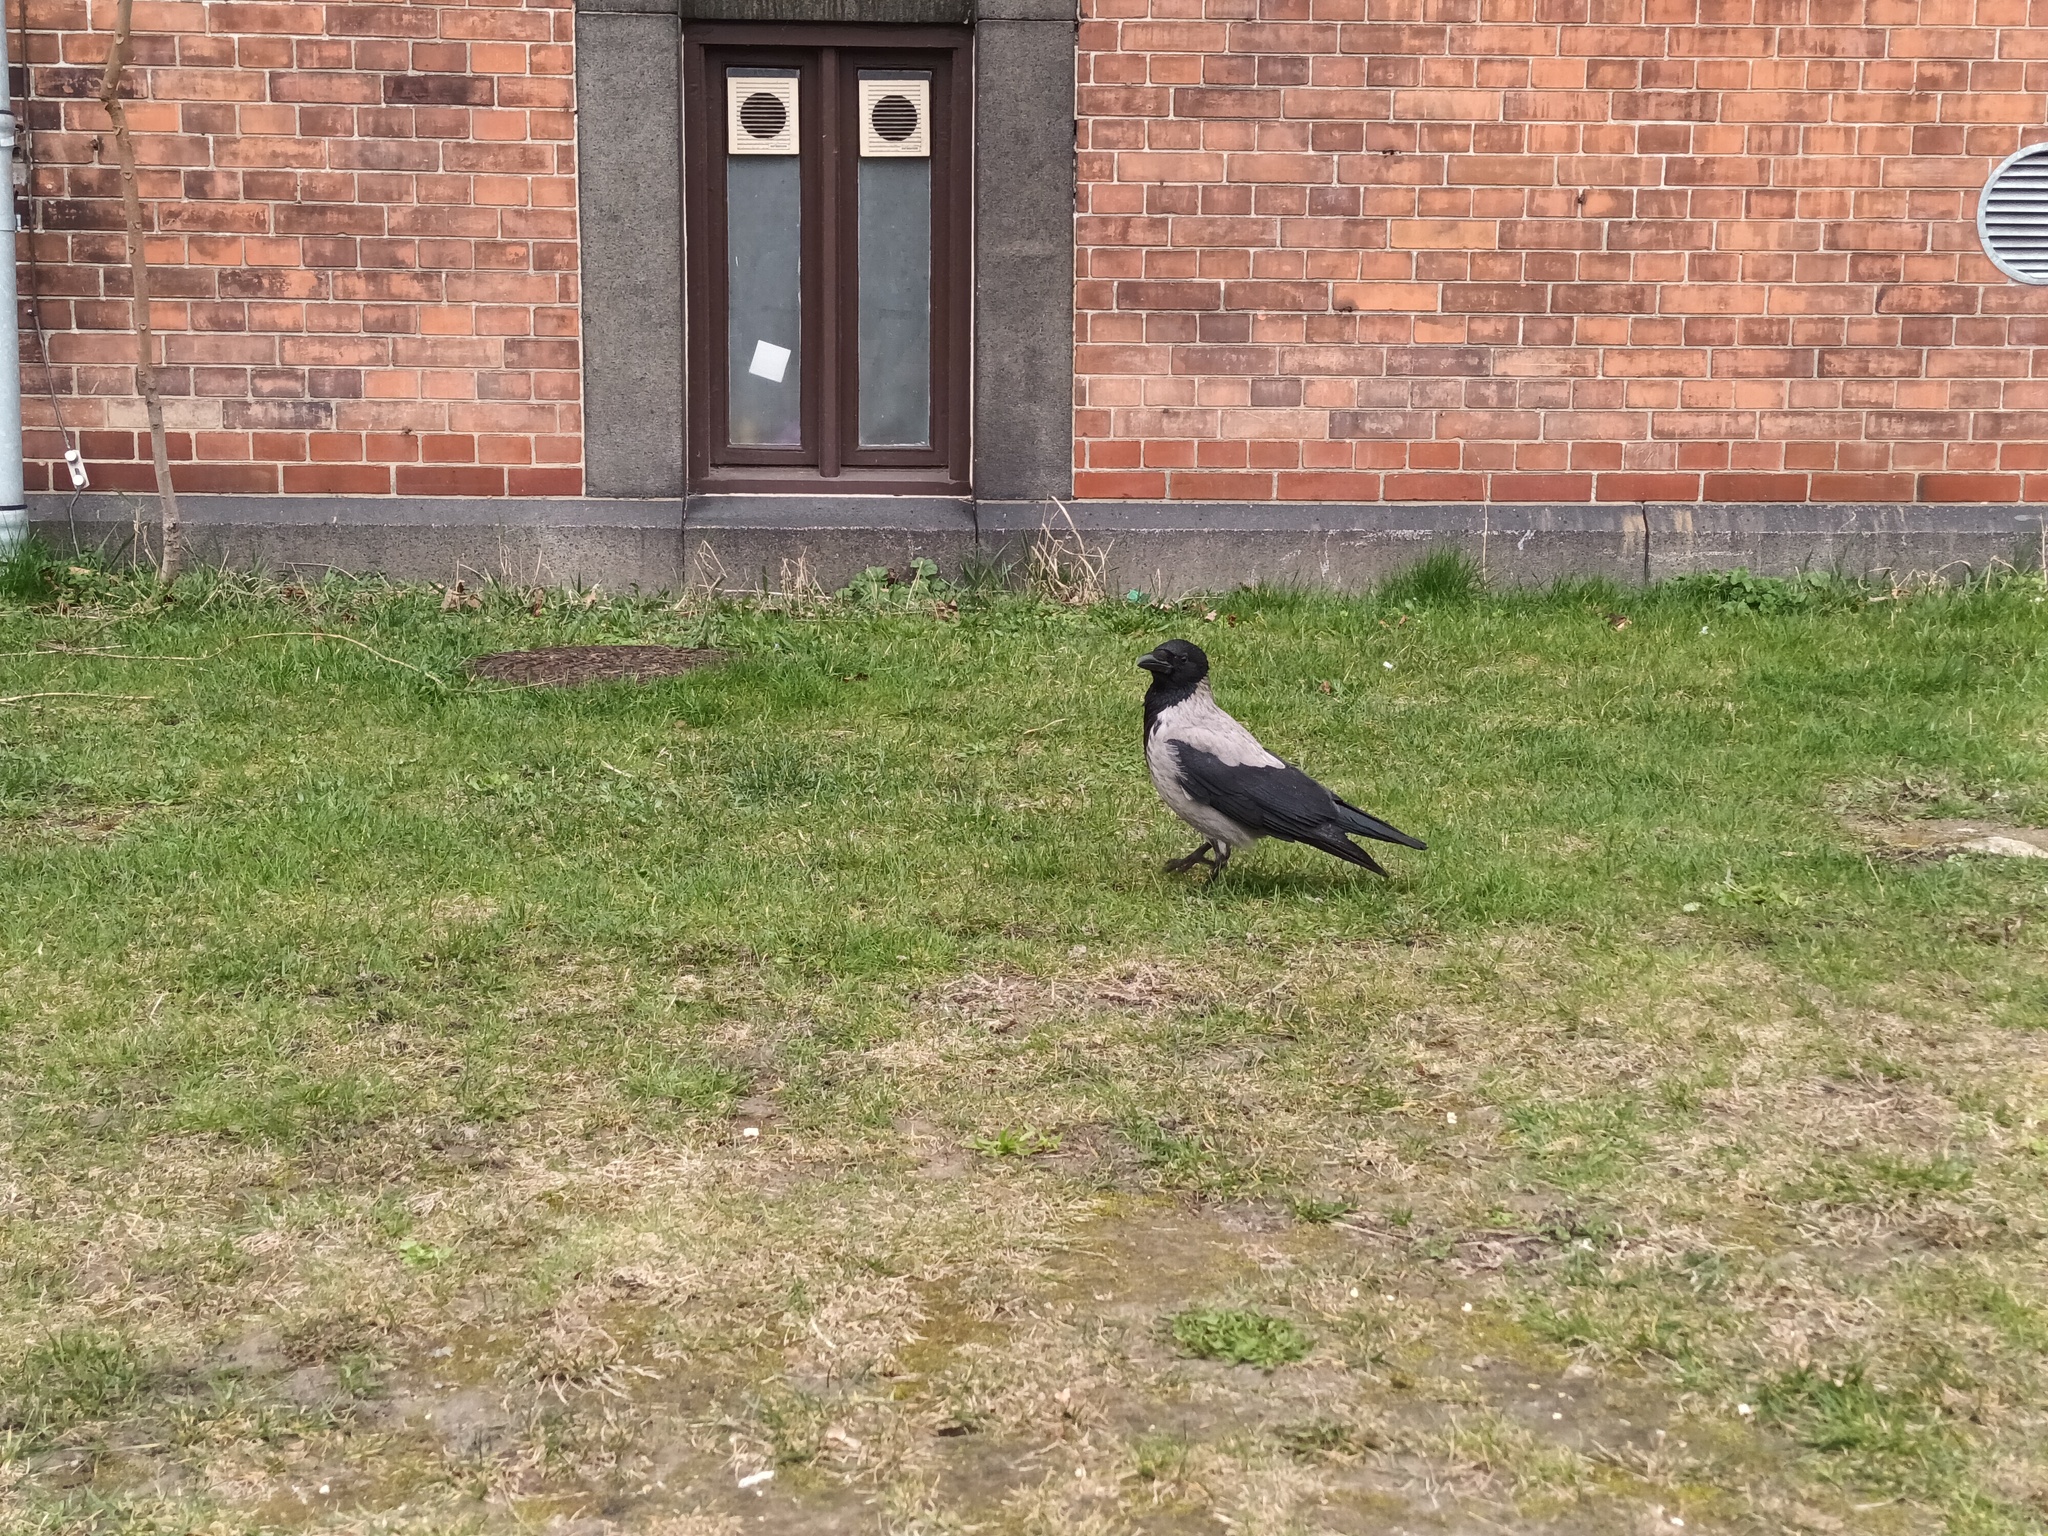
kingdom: Animalia
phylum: Chordata
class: Aves
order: Passeriformes
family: Corvidae
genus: Corvus
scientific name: Corvus cornix
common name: Hooded crow
